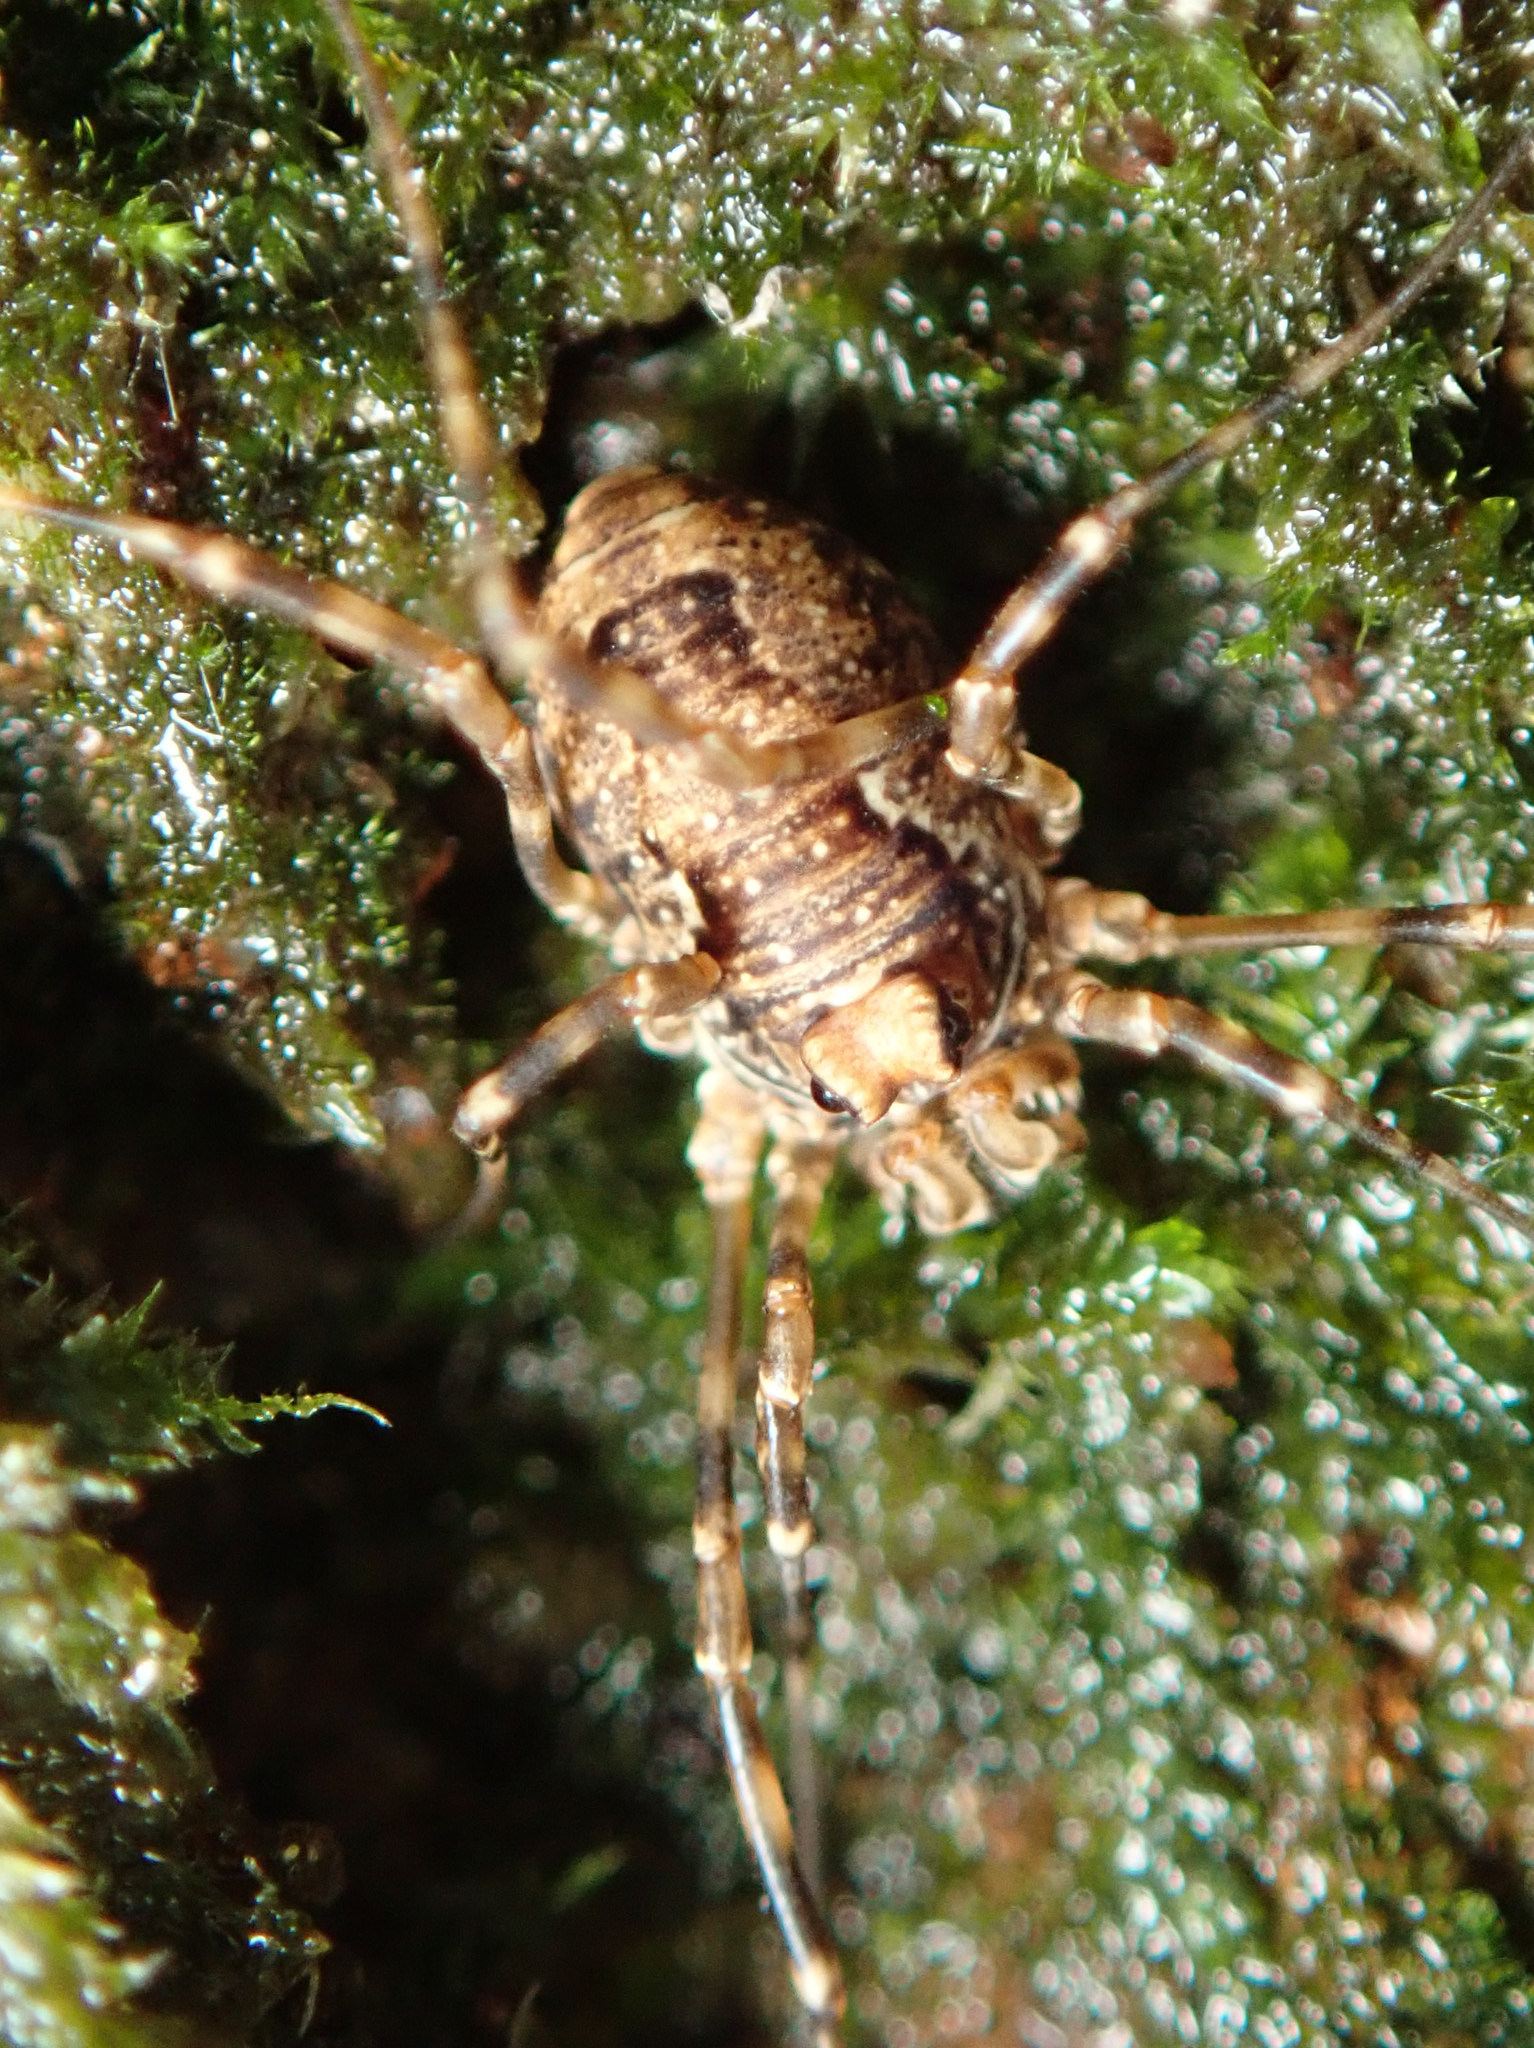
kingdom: Animalia
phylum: Arthropoda
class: Arachnida
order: Opiliones
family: Phalangiidae
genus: Platybunus
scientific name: Platybunus pinetorum
